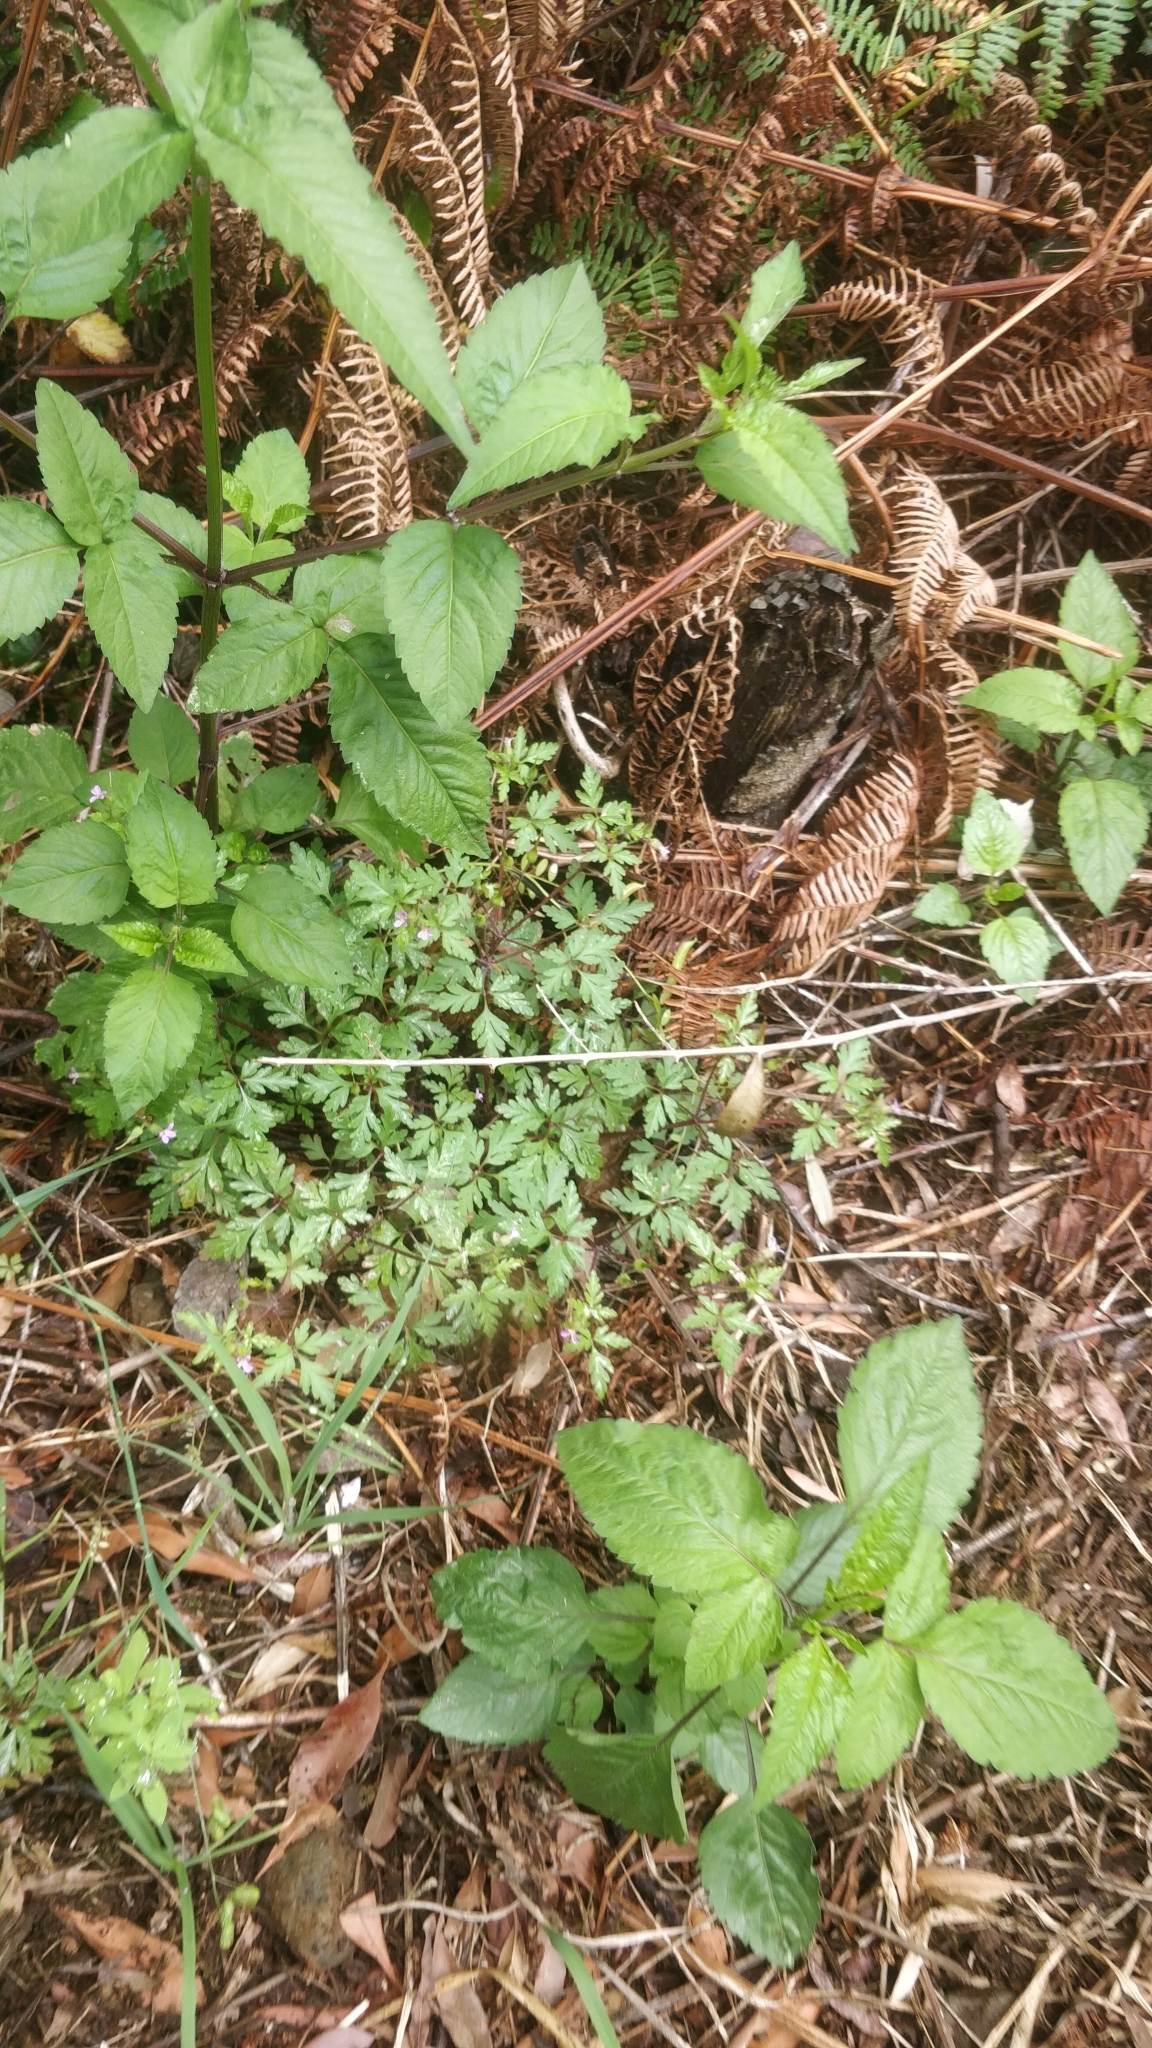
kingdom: Plantae
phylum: Tracheophyta
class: Magnoliopsida
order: Geraniales
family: Geraniaceae
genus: Geranium
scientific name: Geranium yeoi
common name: Greater herb robert
